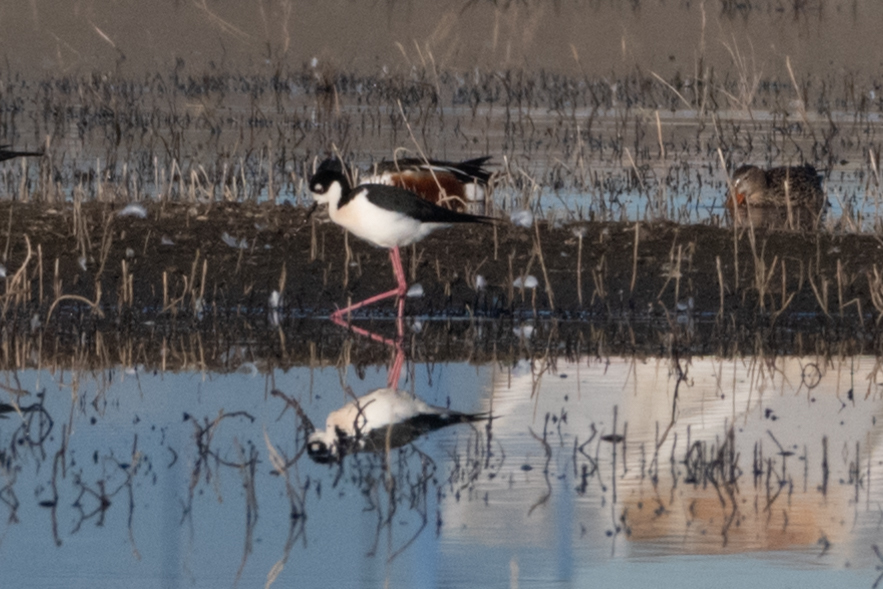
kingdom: Animalia
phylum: Chordata
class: Aves
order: Charadriiformes
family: Recurvirostridae
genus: Himantopus
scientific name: Himantopus mexicanus
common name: Black-necked stilt
